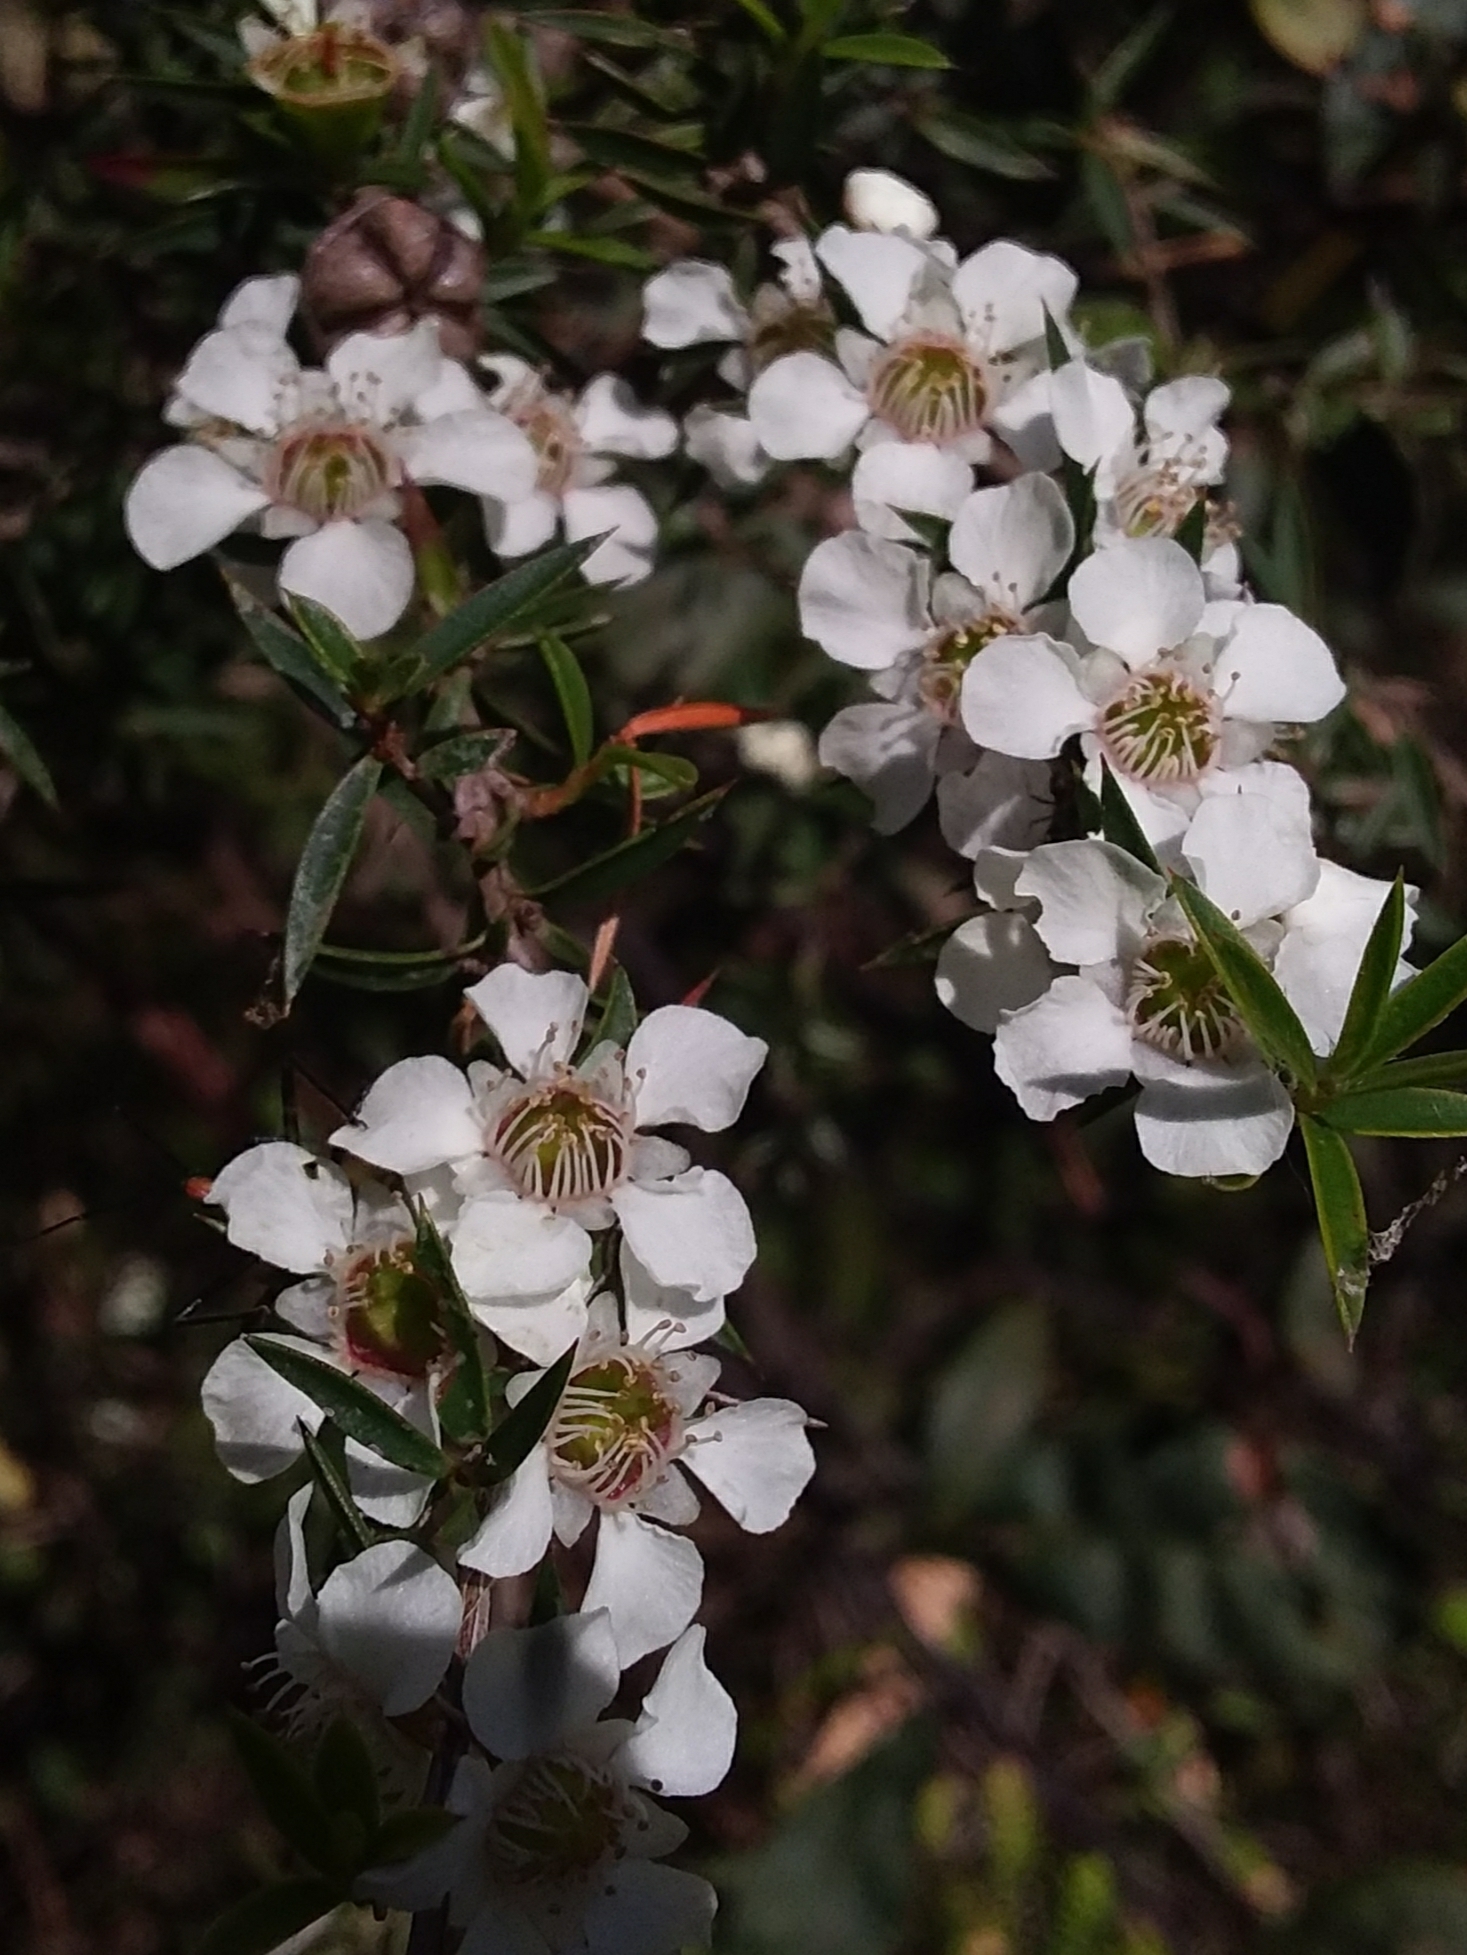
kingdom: Plantae
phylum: Tracheophyta
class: Magnoliopsida
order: Myrtales
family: Myrtaceae
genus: Leptospermum
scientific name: Leptospermum continentale
